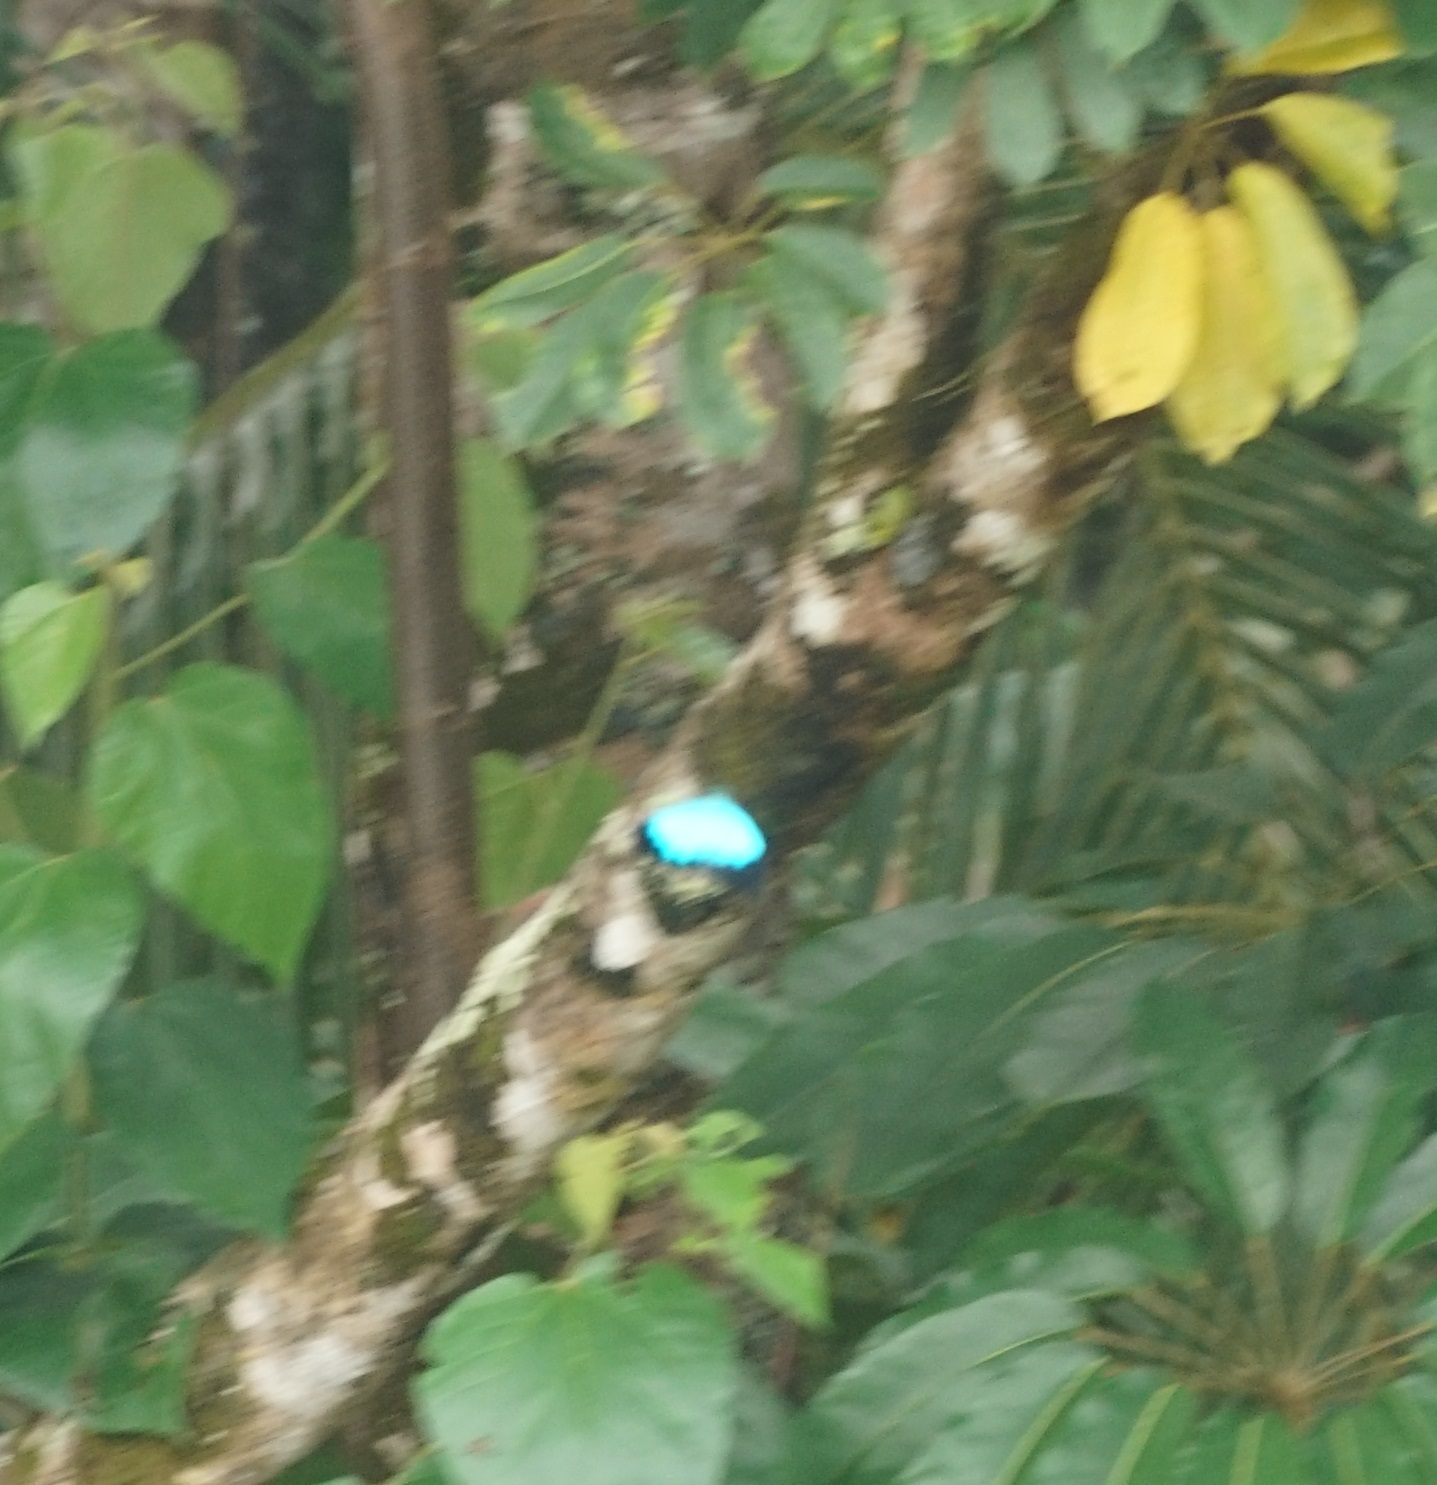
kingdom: Animalia
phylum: Arthropoda
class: Insecta
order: Lepidoptera
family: Papilionidae
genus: Papilio
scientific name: Papilio ulysses
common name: Blue emperor
